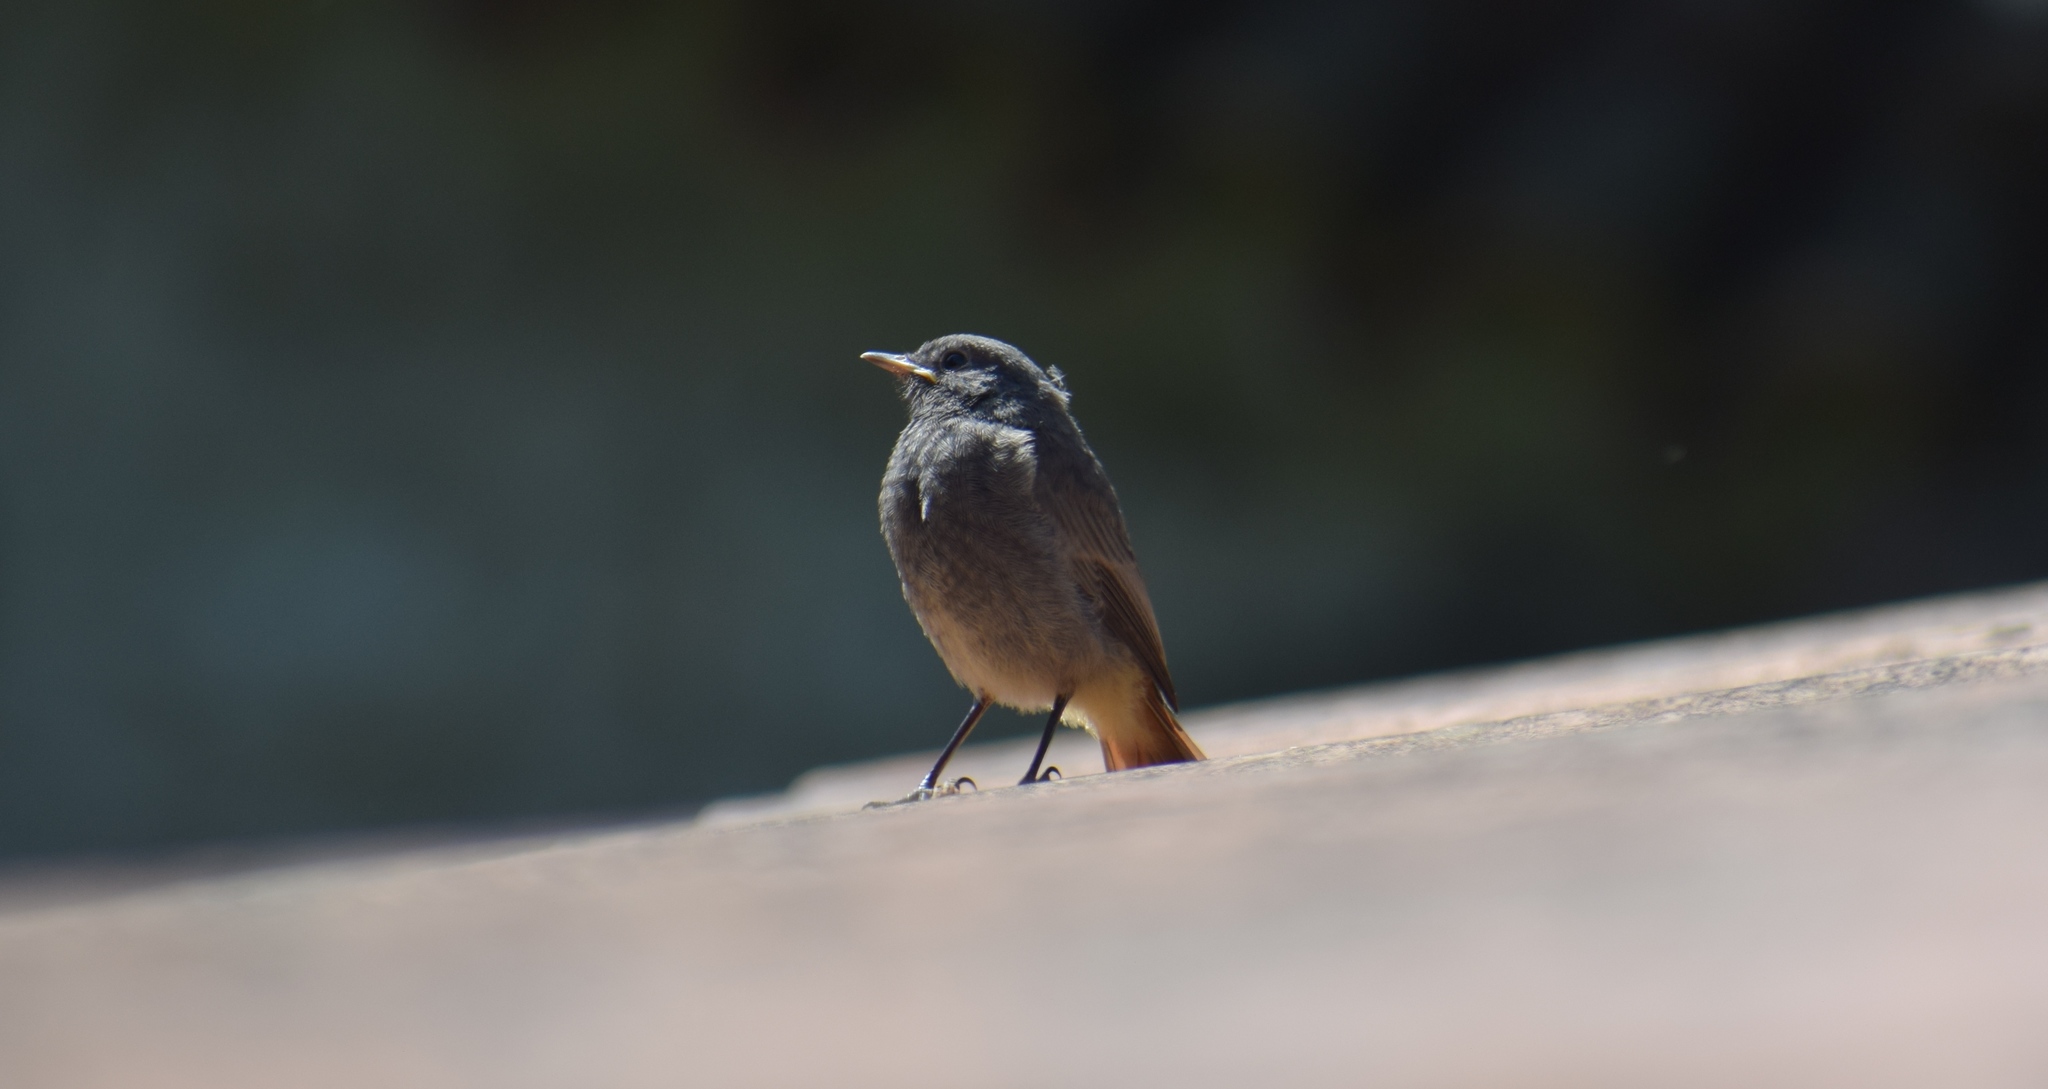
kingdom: Animalia
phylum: Chordata
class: Aves
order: Passeriformes
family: Muscicapidae
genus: Phoenicurus
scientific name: Phoenicurus ochruros
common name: Black redstart
